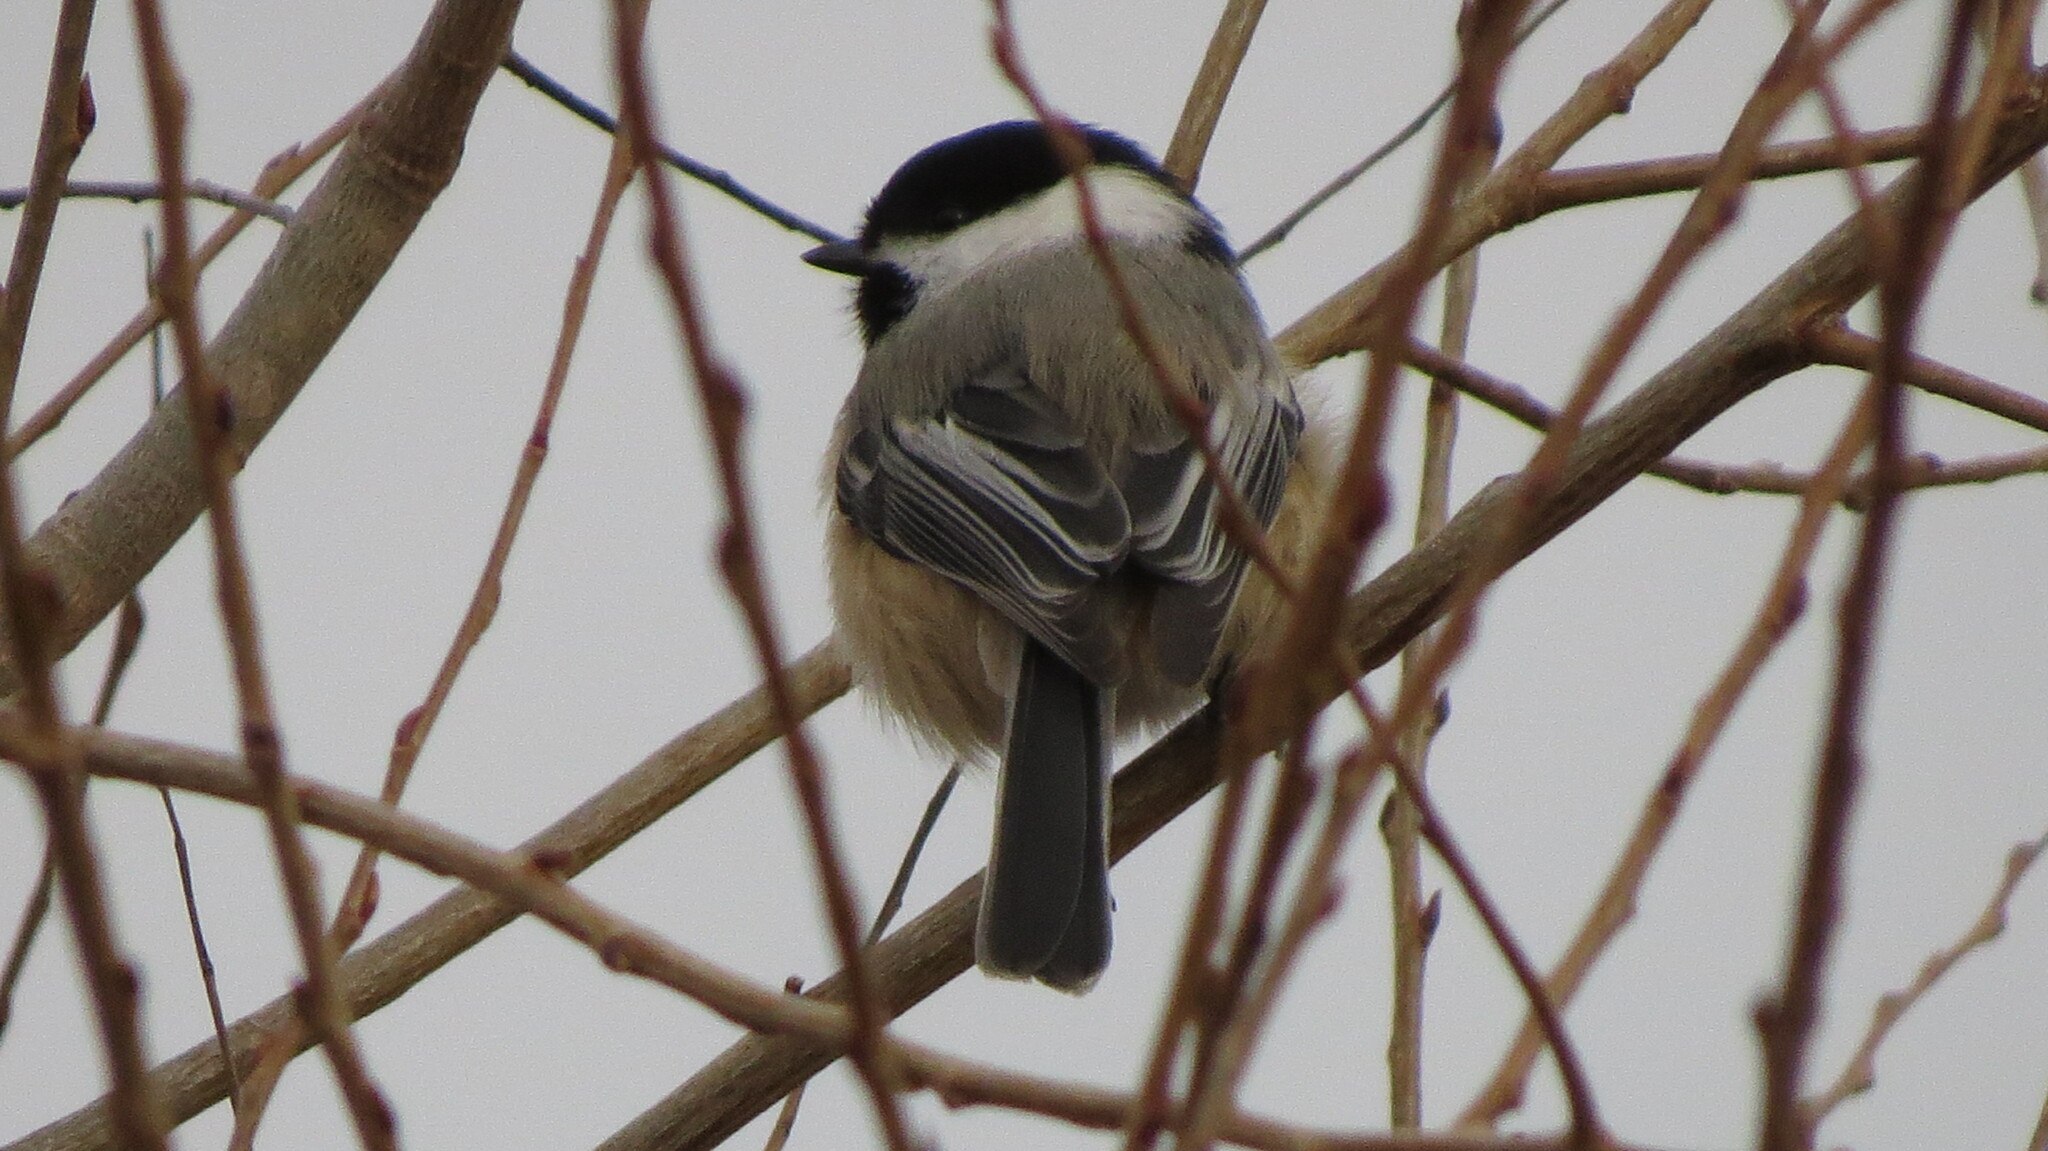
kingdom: Animalia
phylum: Chordata
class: Aves
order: Passeriformes
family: Paridae
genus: Poecile
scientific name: Poecile atricapillus
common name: Black-capped chickadee
